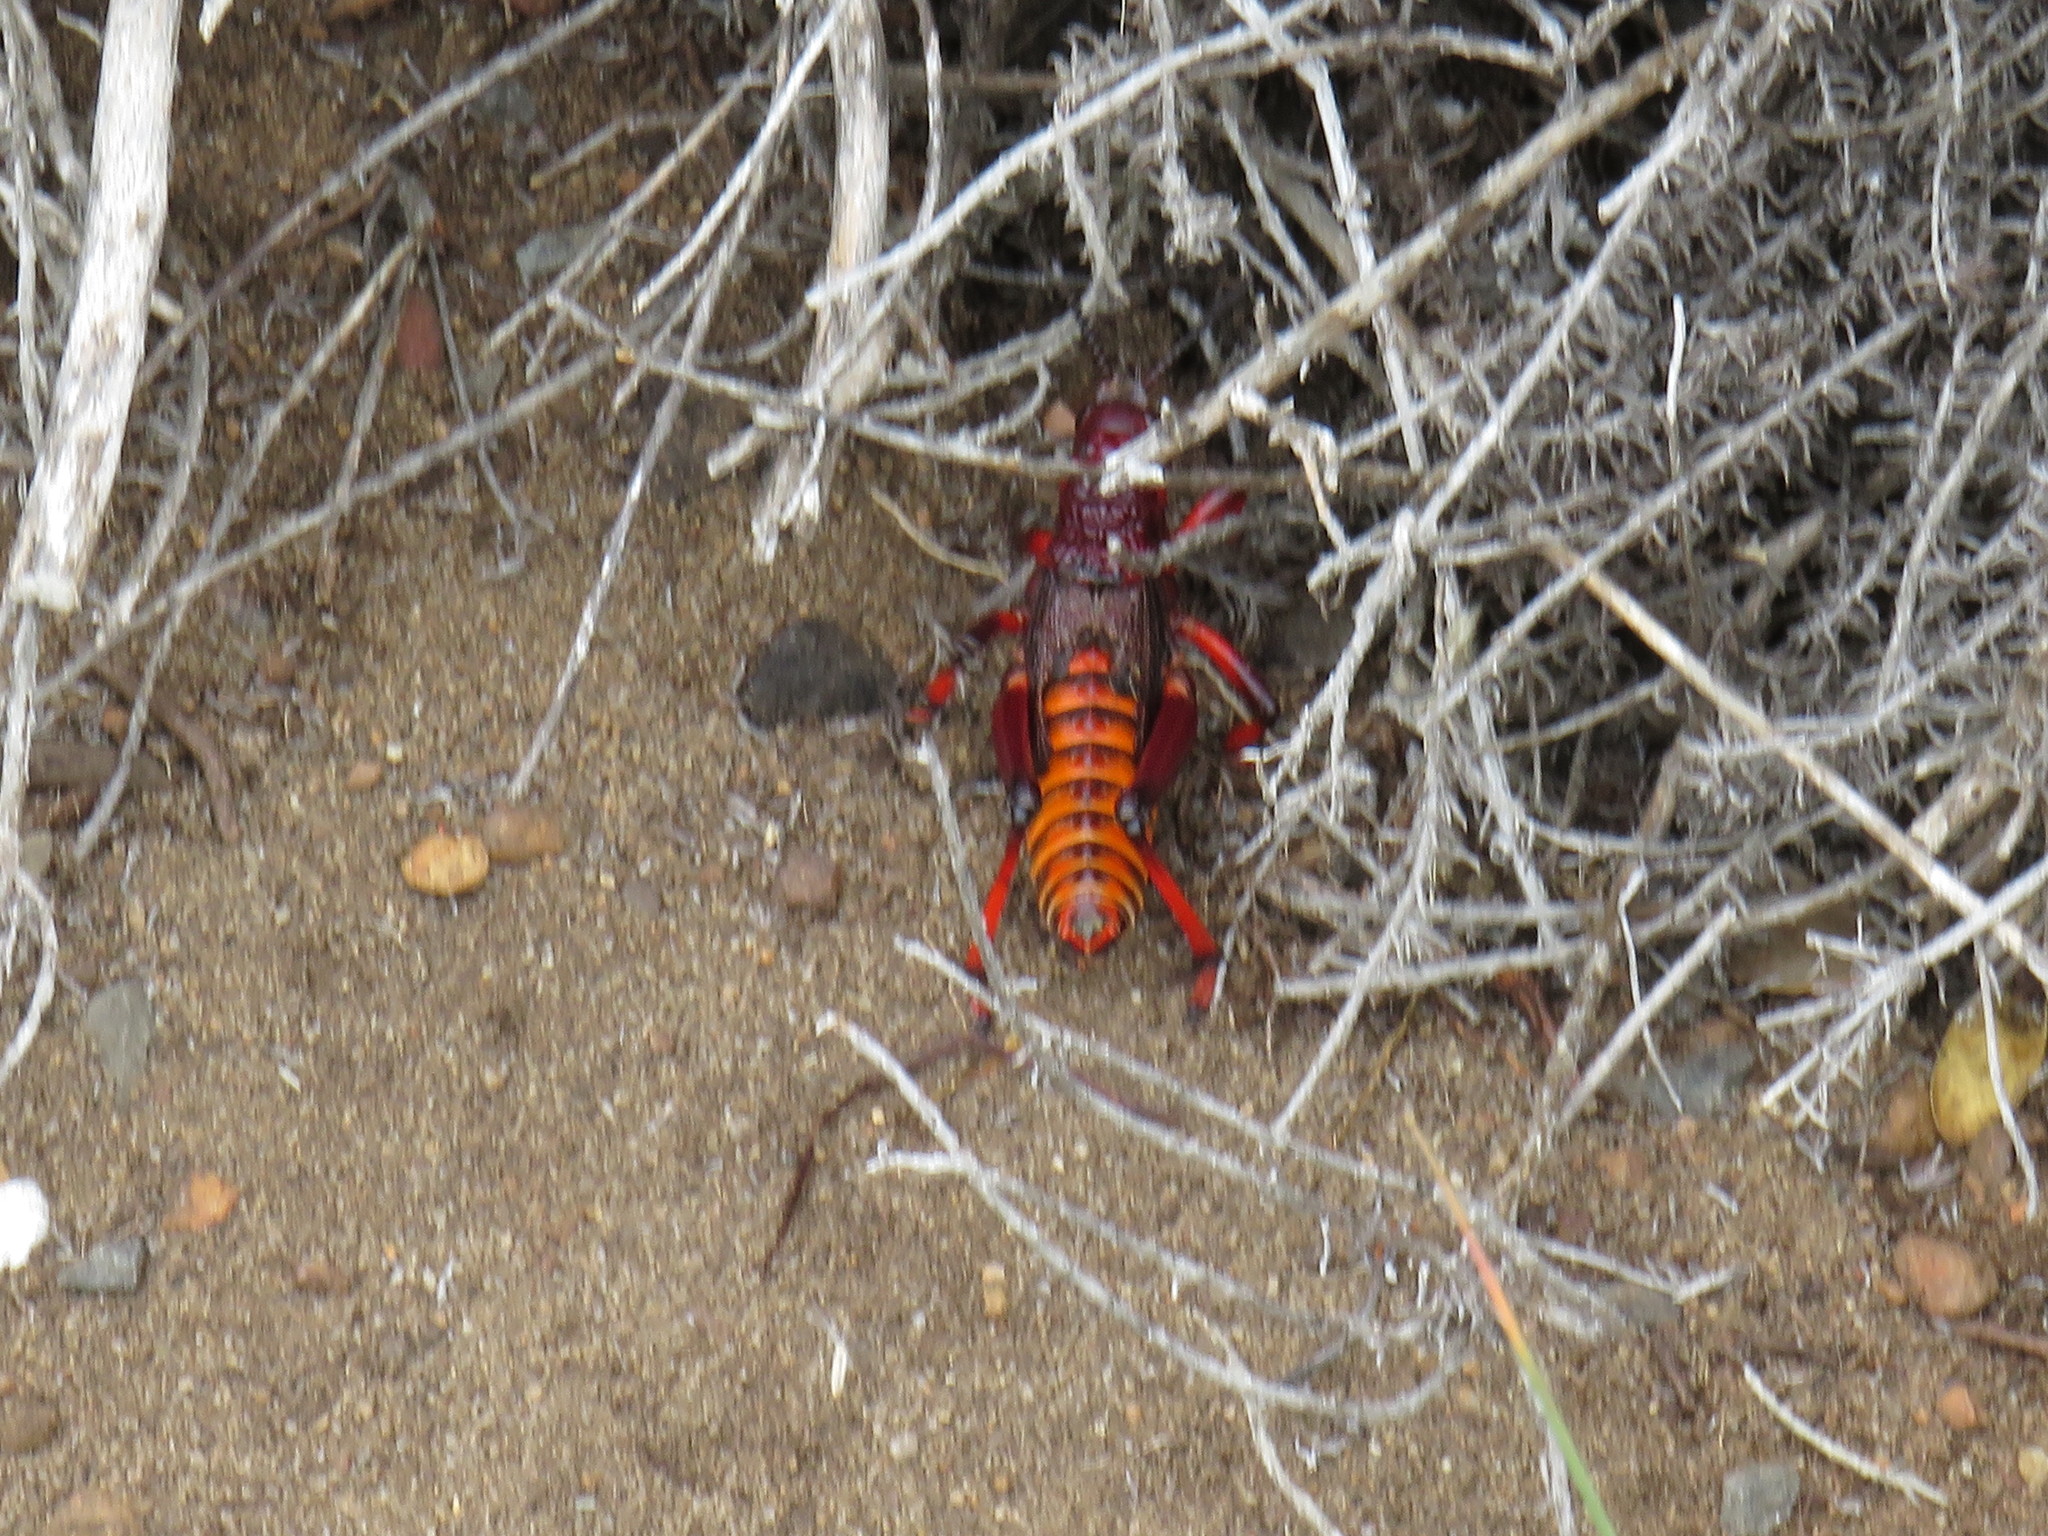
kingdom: Animalia
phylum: Arthropoda
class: Insecta
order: Orthoptera
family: Pyrgomorphidae
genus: Dictyophorus
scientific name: Dictyophorus spumans
